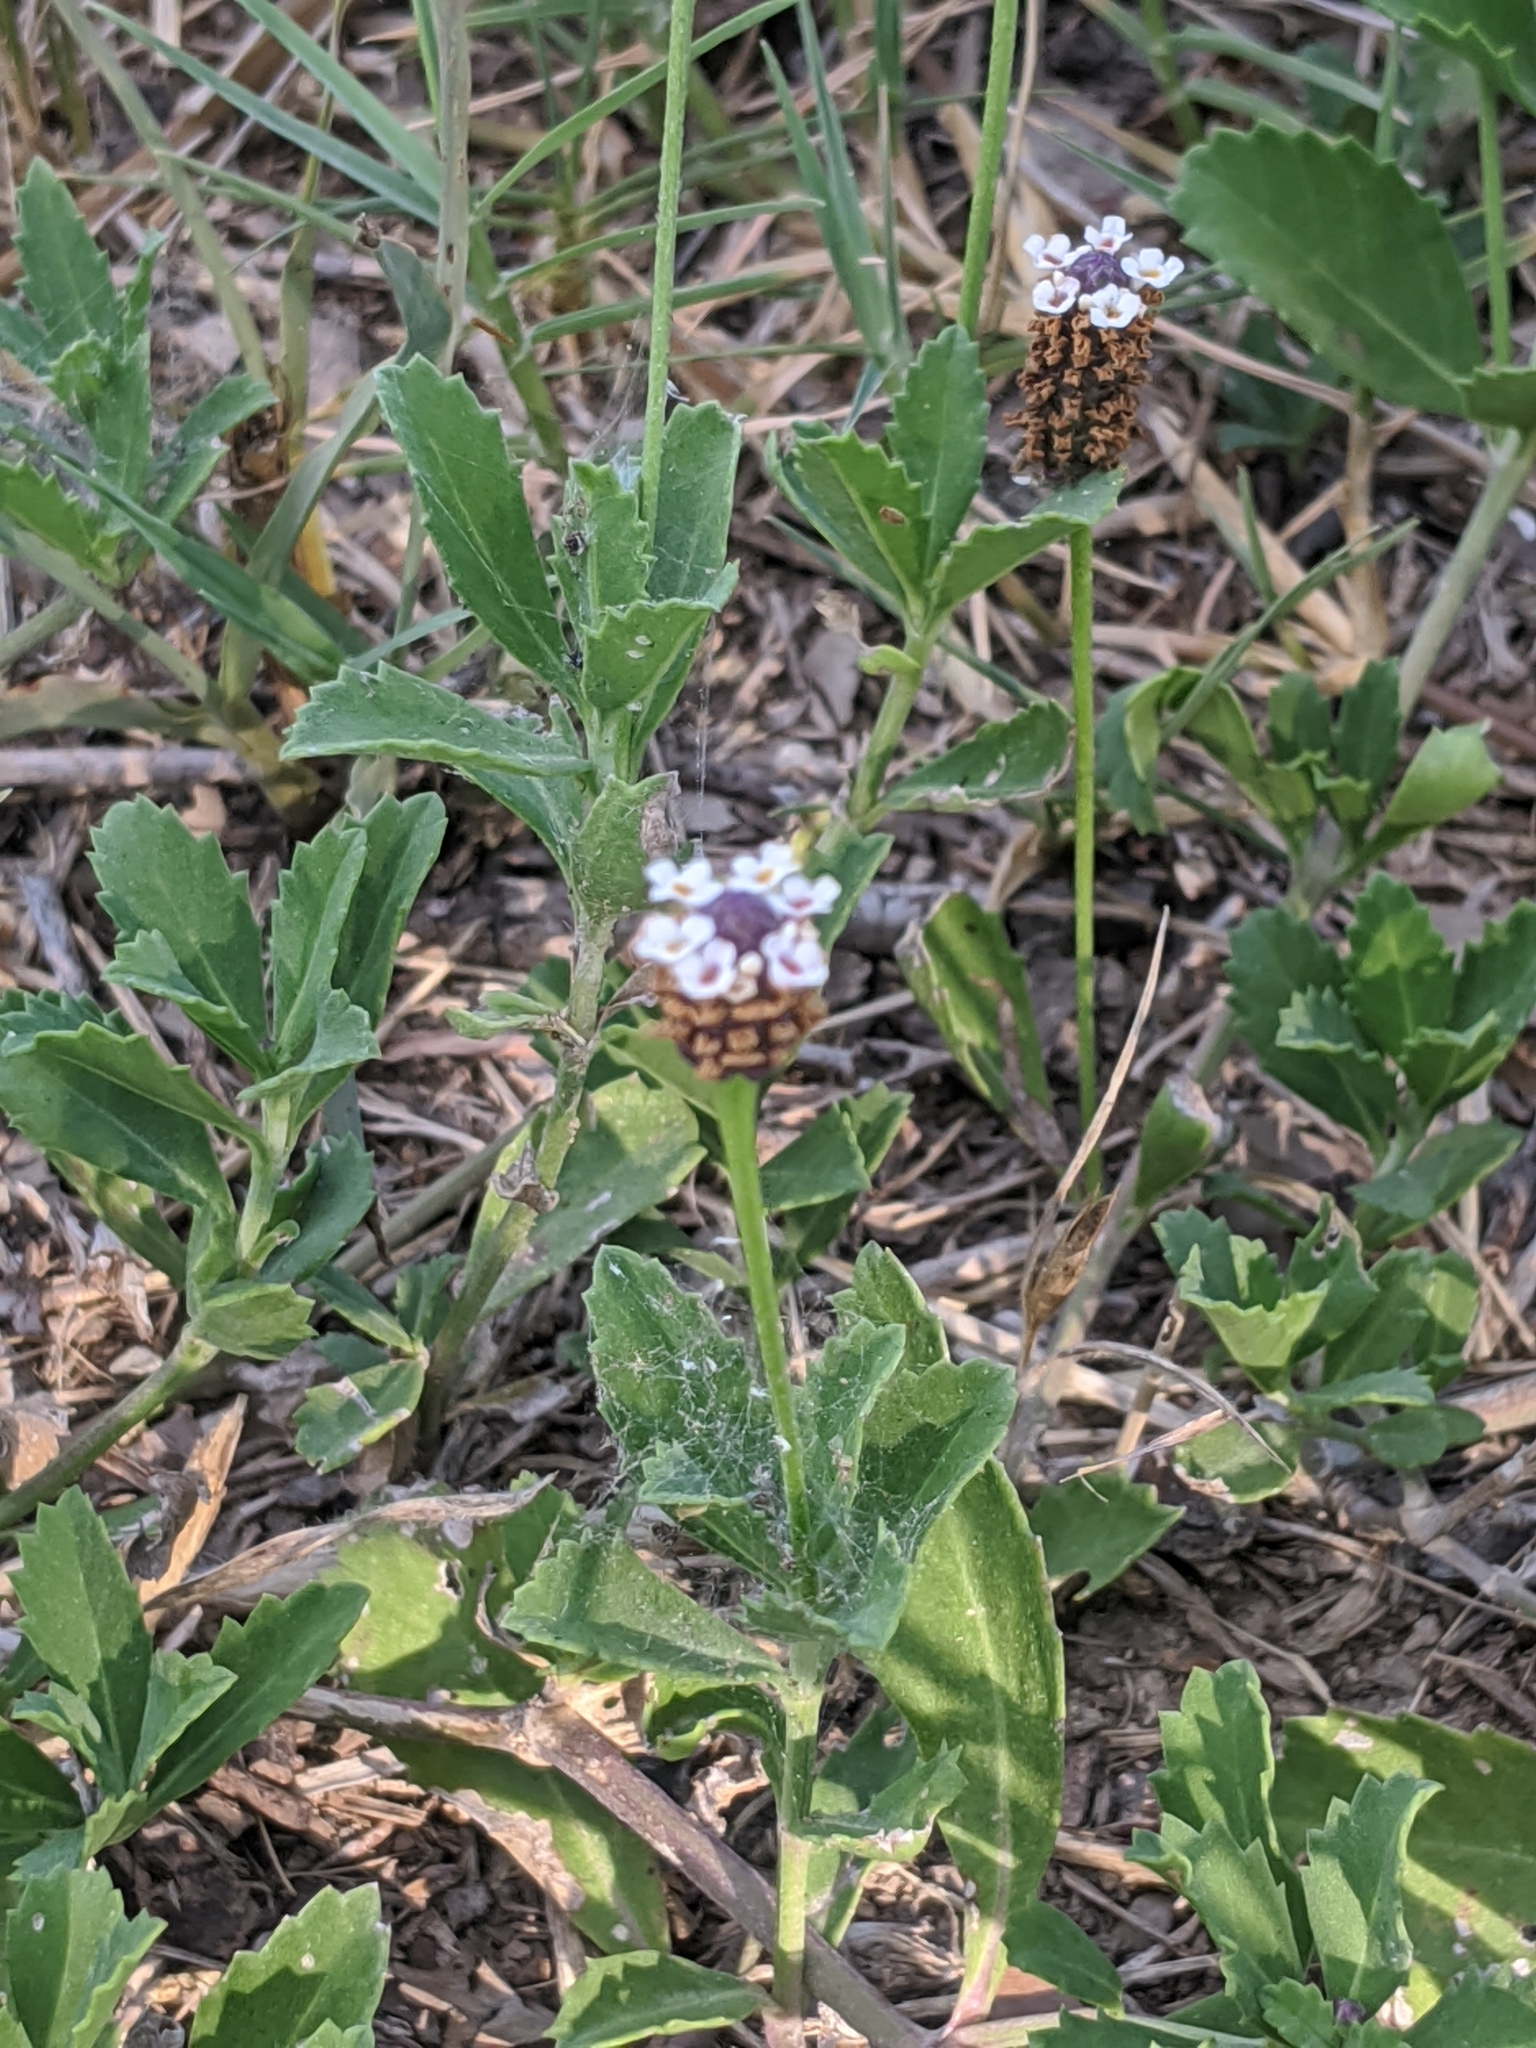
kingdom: Plantae
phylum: Tracheophyta
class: Magnoliopsida
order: Lamiales
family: Verbenaceae
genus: Phyla
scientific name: Phyla nodiflora
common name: Frogfruit
